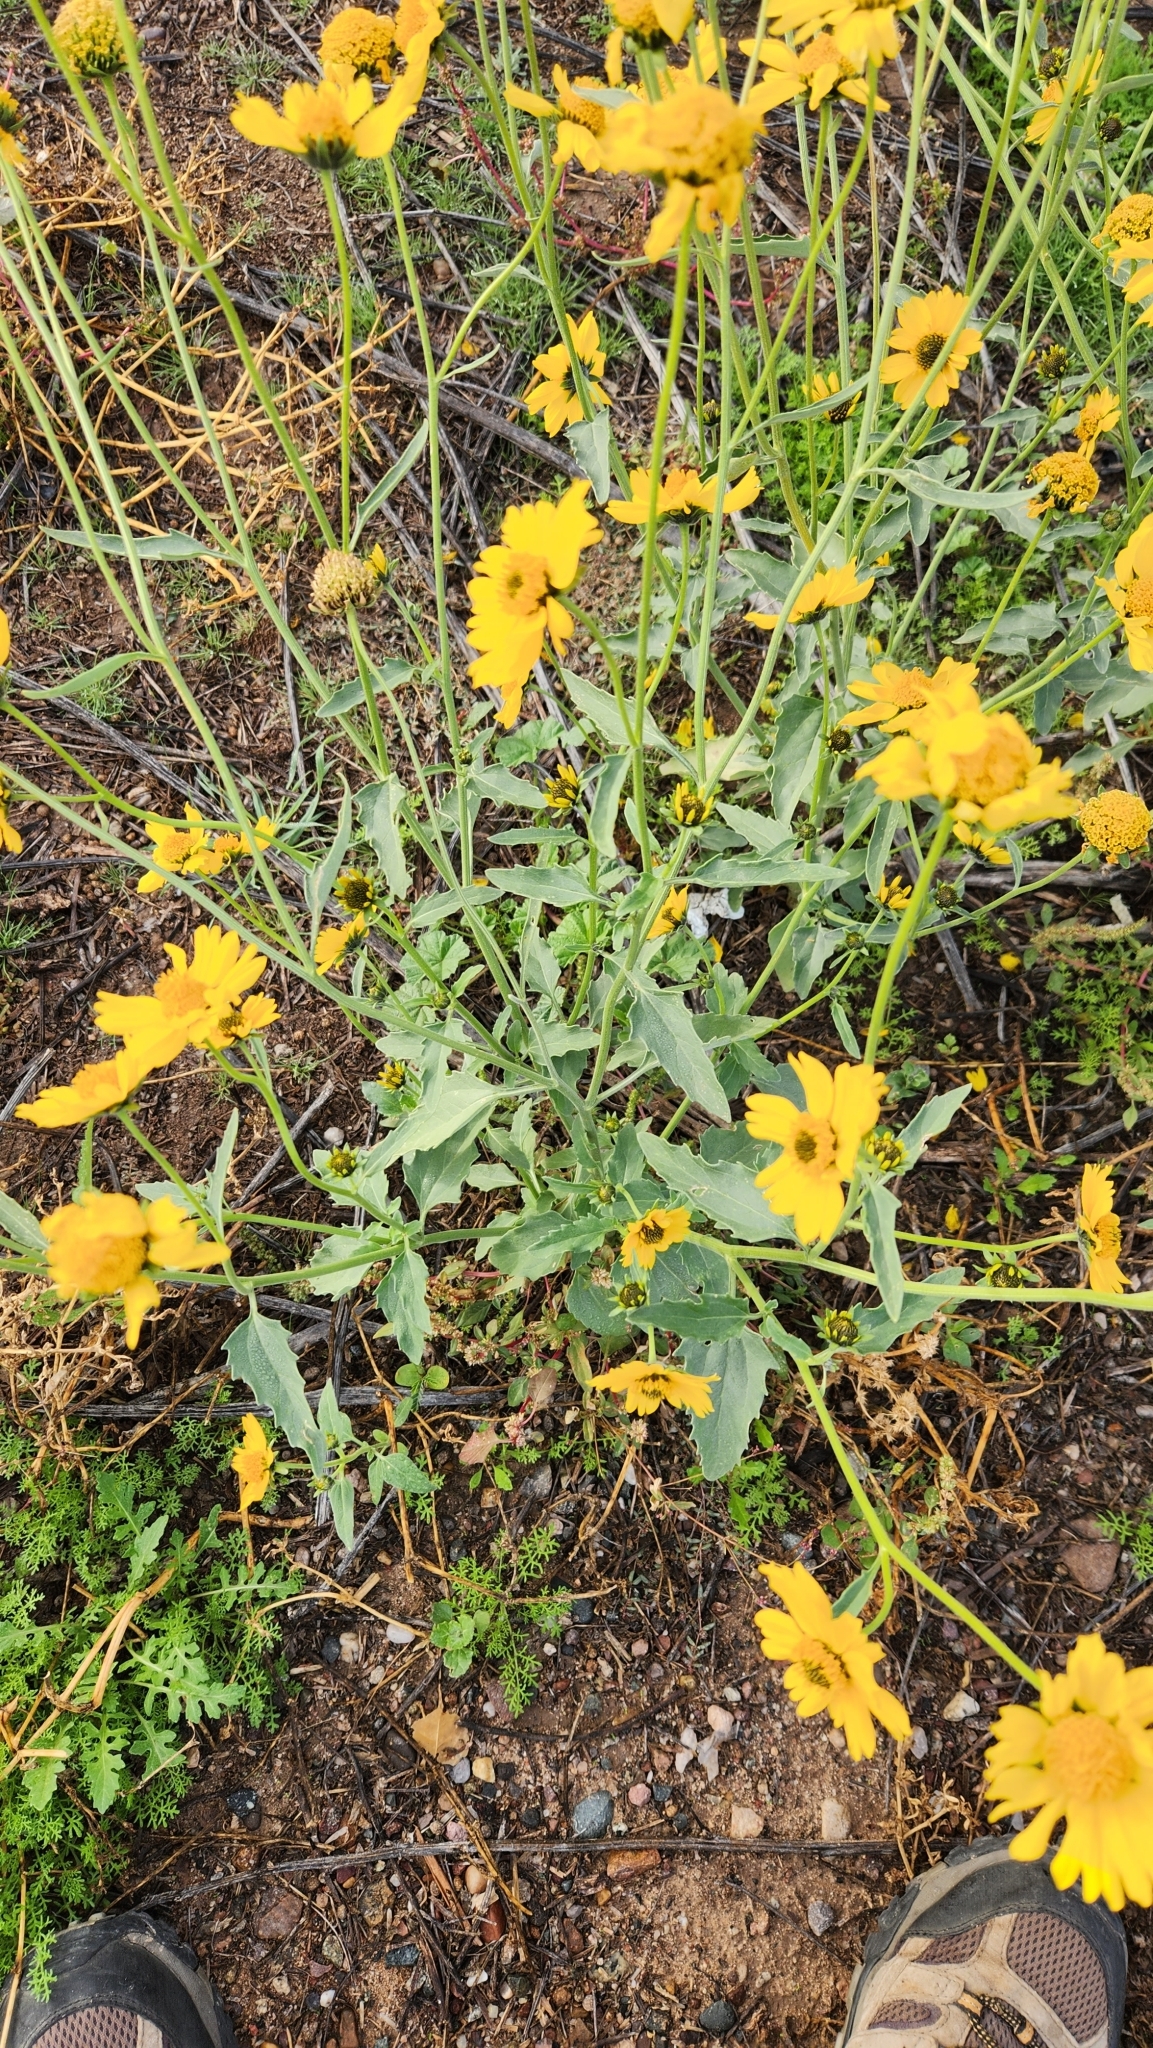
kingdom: Plantae
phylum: Tracheophyta
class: Magnoliopsida
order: Asterales
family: Asteraceae
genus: Verbesina
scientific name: Verbesina encelioides
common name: Golden crownbeard
